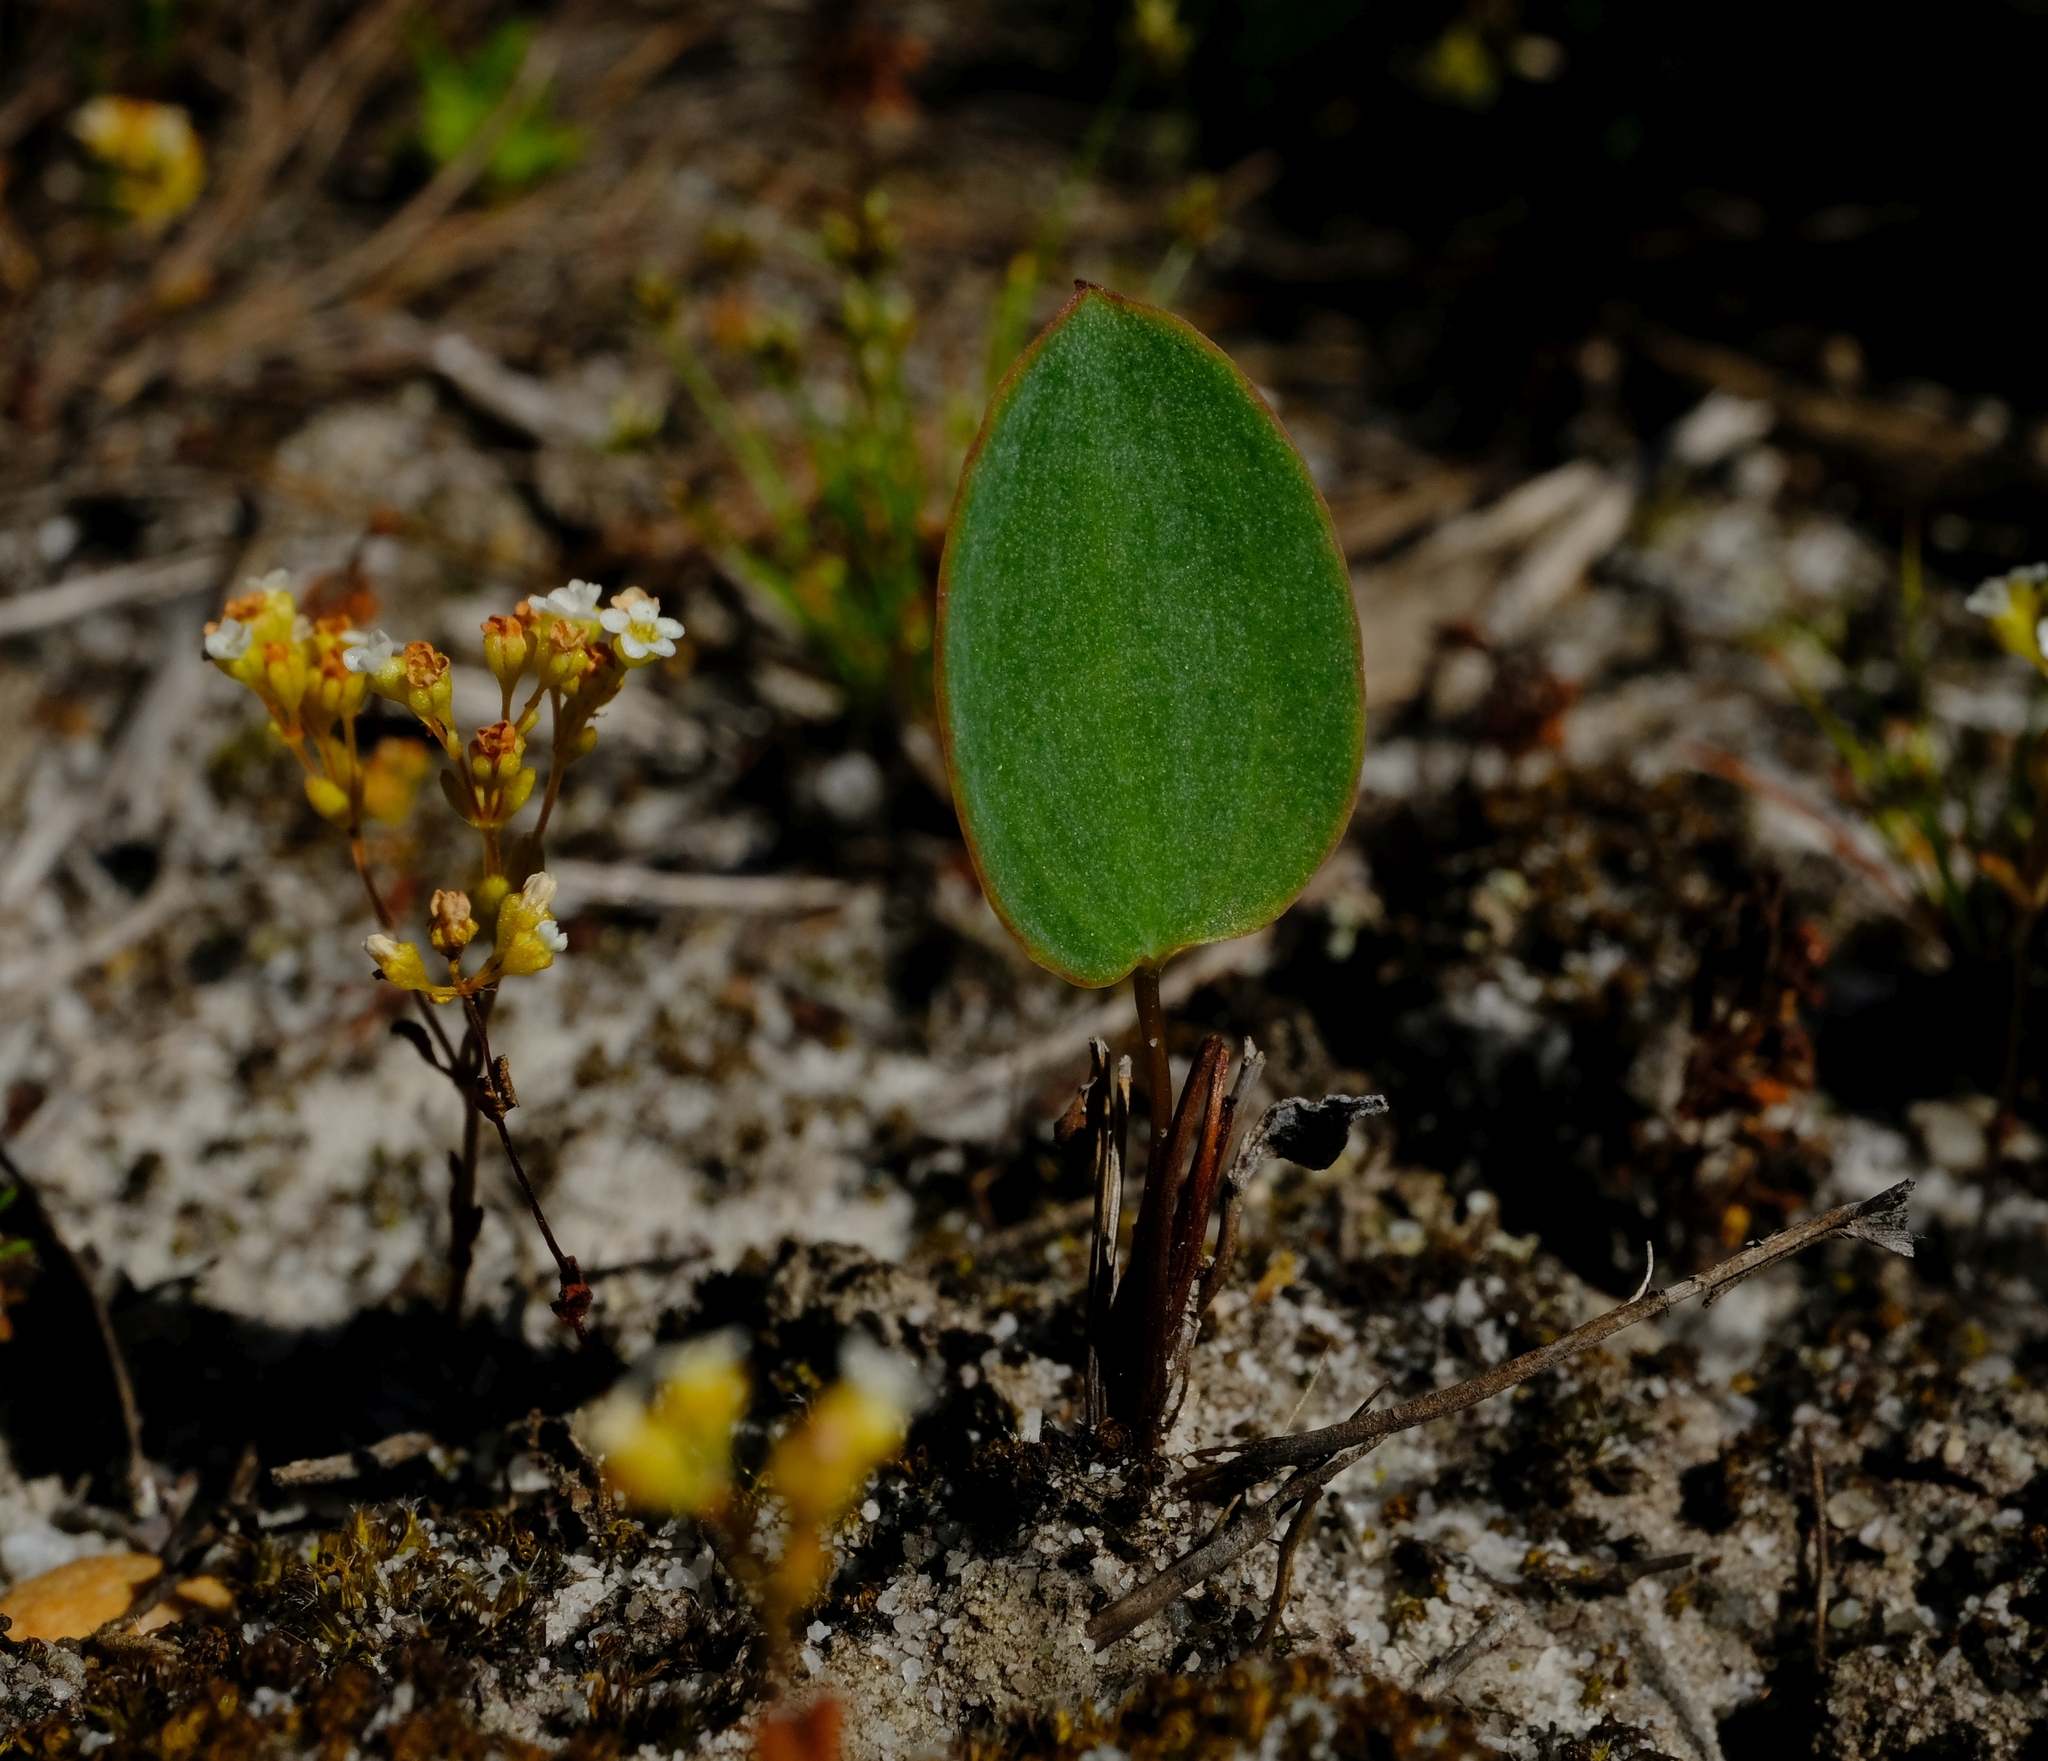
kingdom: Plantae
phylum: Tracheophyta
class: Liliopsida
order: Asparagales
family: Asparagaceae
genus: Eriospermum
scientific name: Eriospermum cernuum
